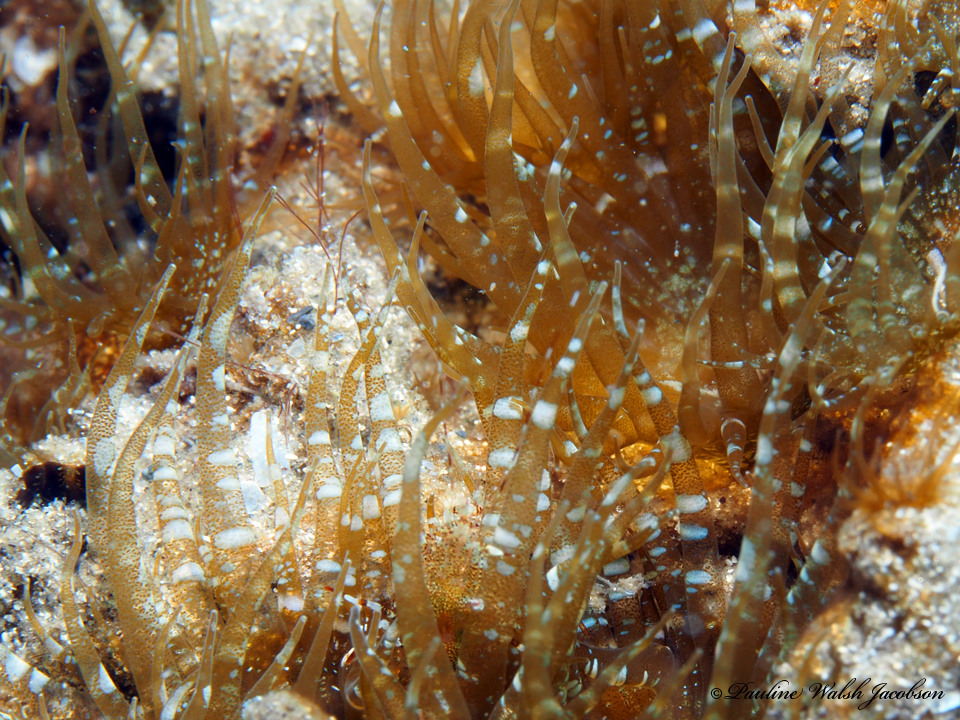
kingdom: Animalia
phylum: Cnidaria
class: Anthozoa
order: Actiniaria
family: Aiptasiidae
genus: Exaiptasia
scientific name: Exaiptasia diaphana
